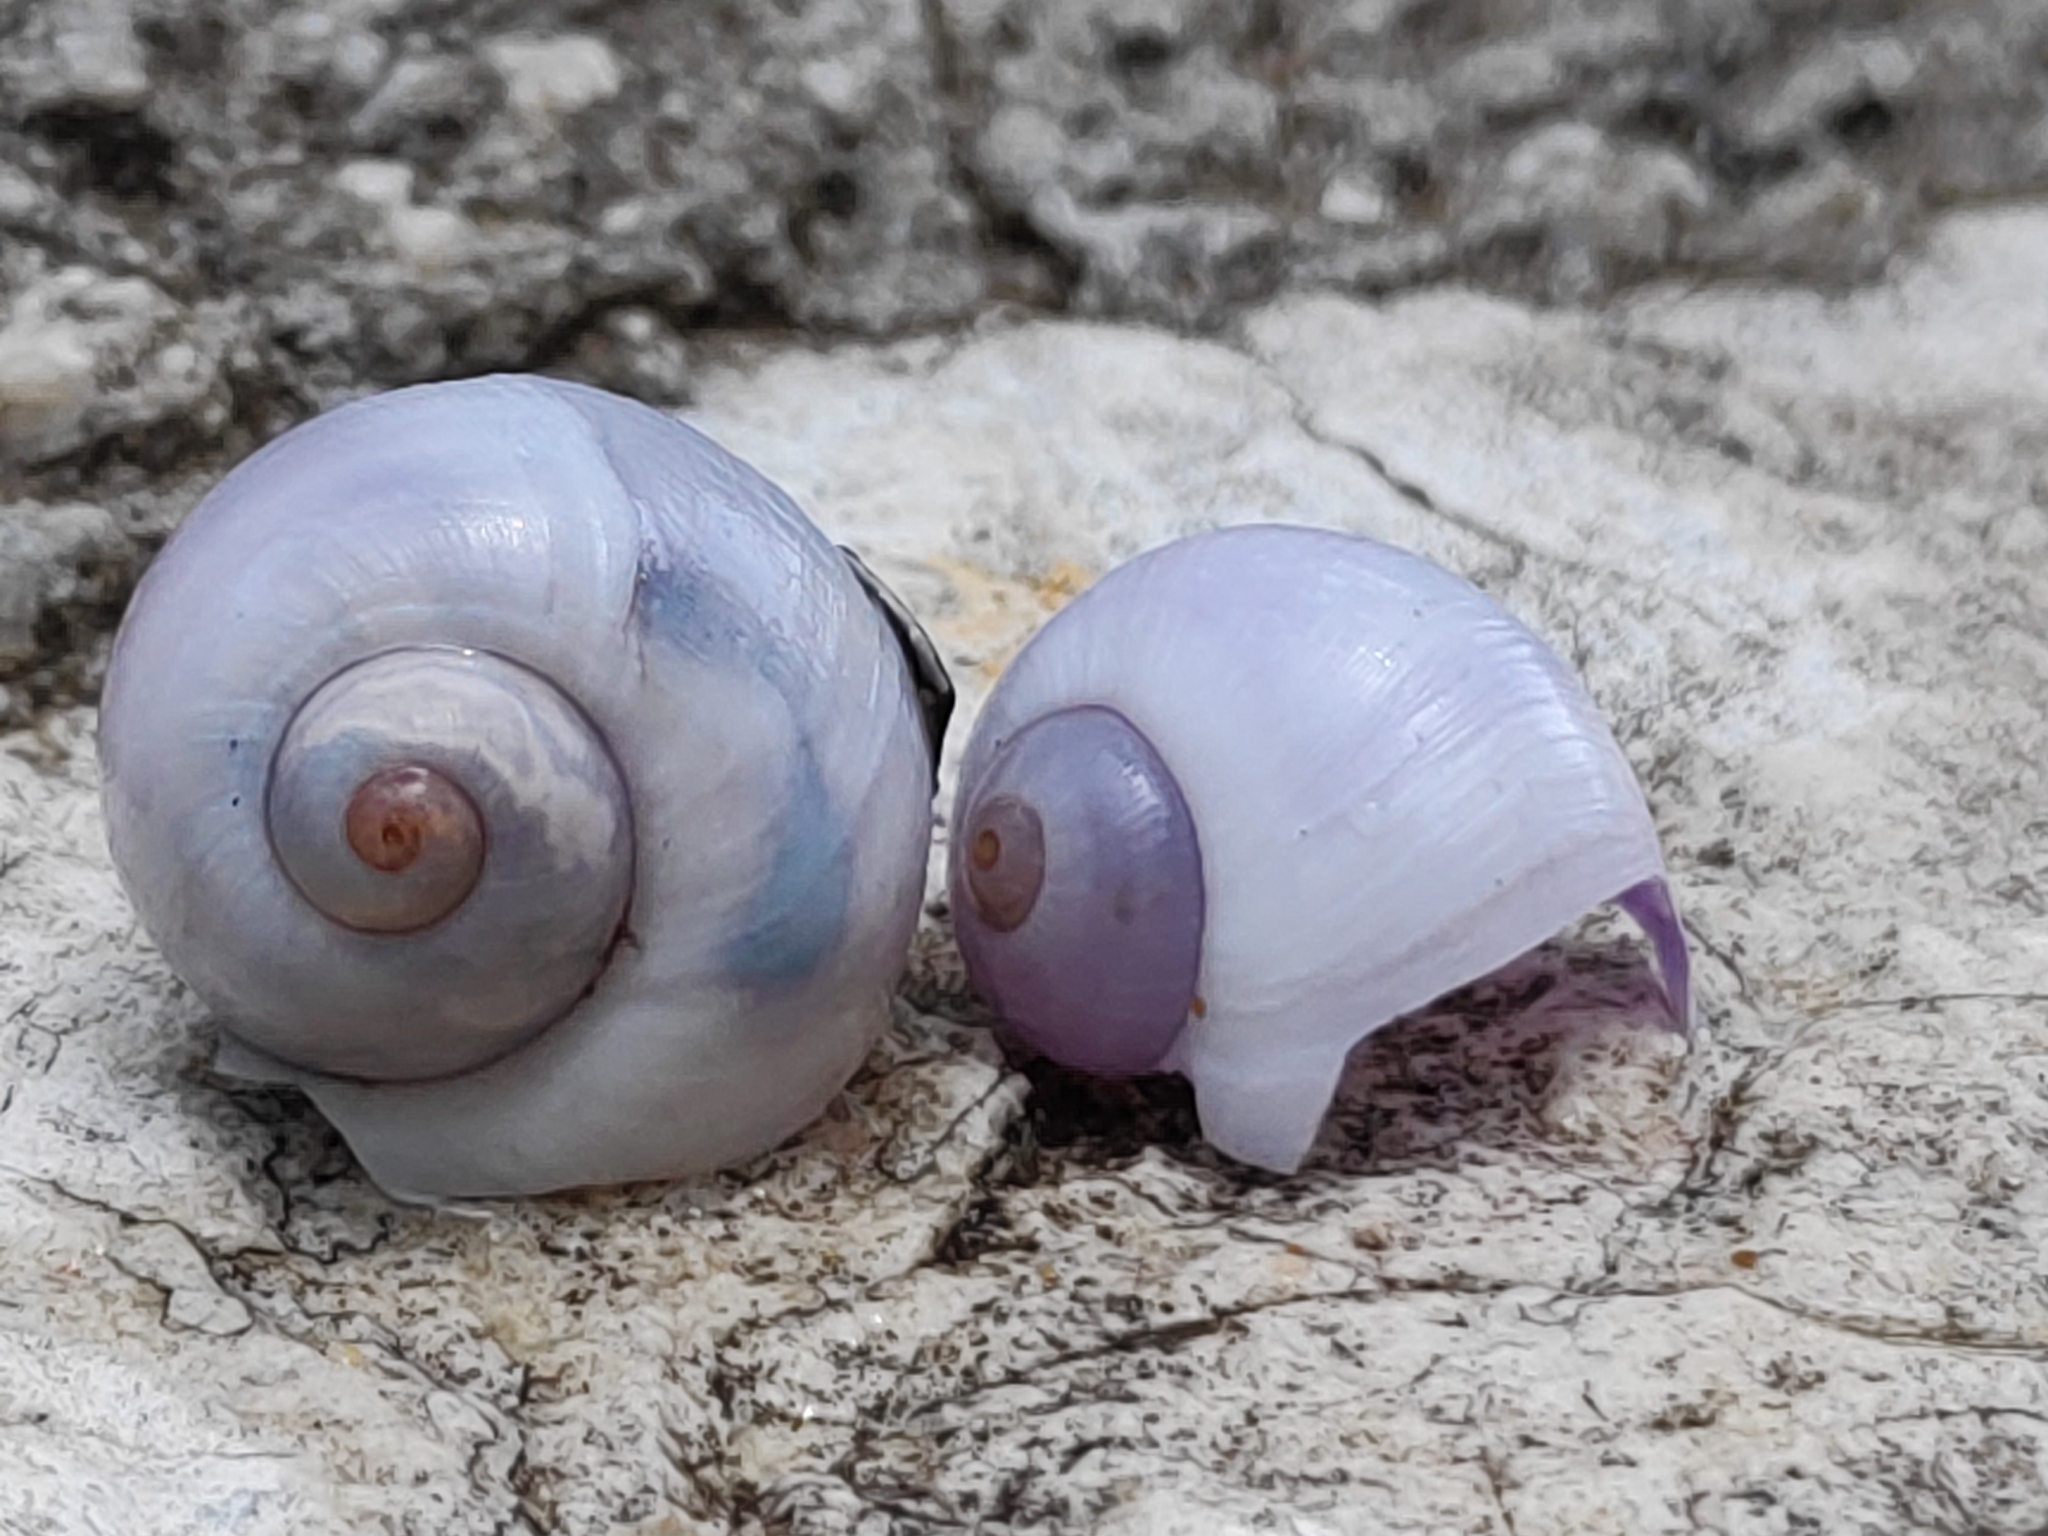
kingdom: Animalia
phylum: Mollusca
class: Gastropoda
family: Epitoniidae
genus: Janthina
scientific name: Janthina
